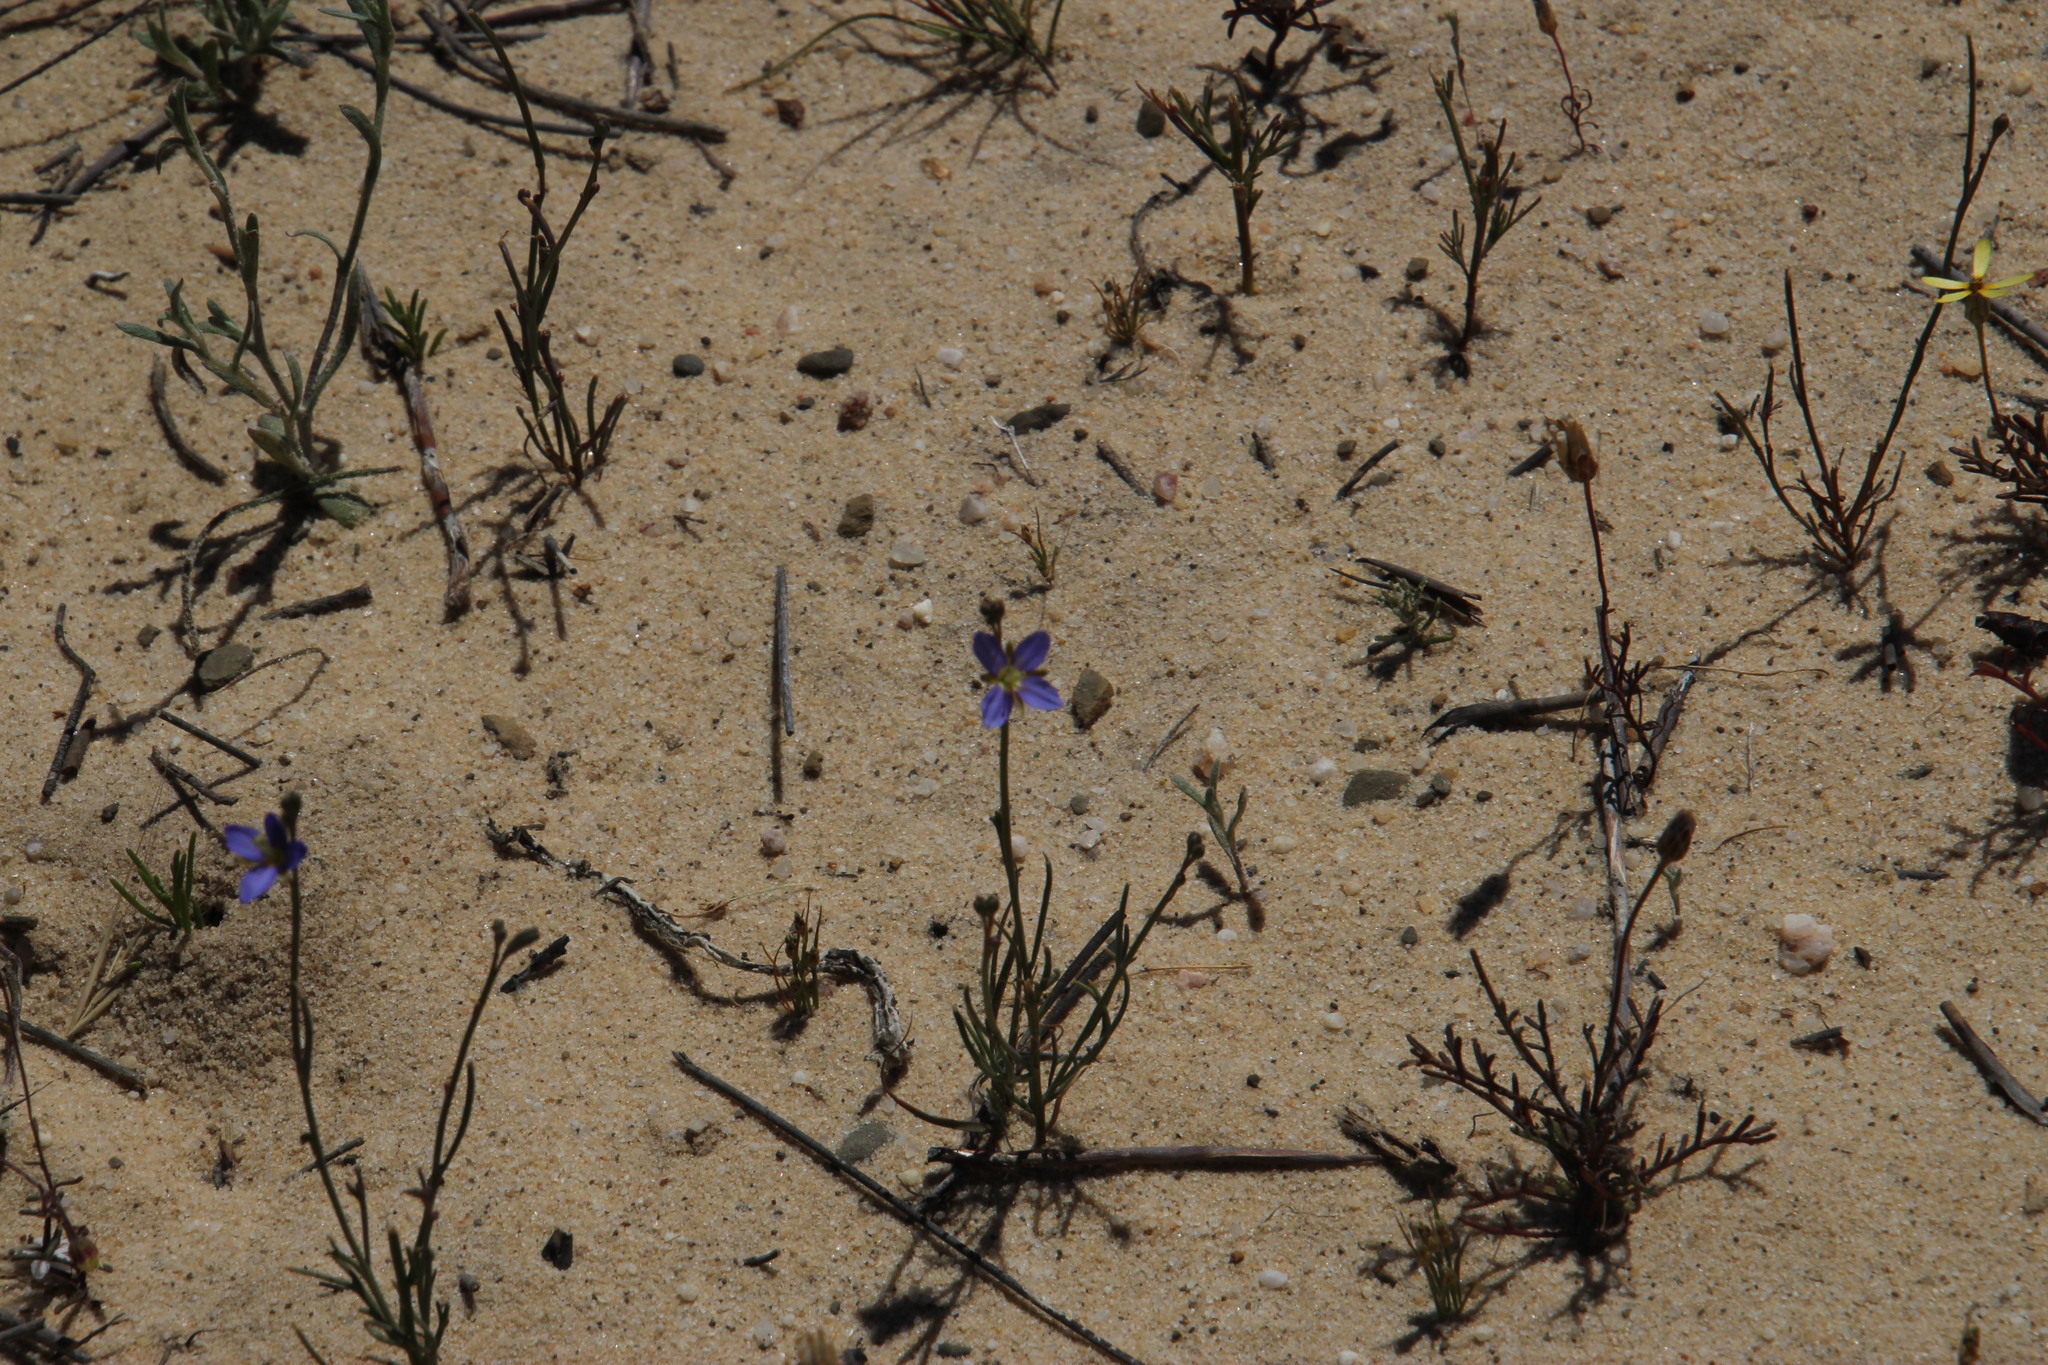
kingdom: Plantae
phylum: Tracheophyta
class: Magnoliopsida
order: Brassicales
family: Brassicaceae
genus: Heliophila
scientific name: Heliophila arenosa
